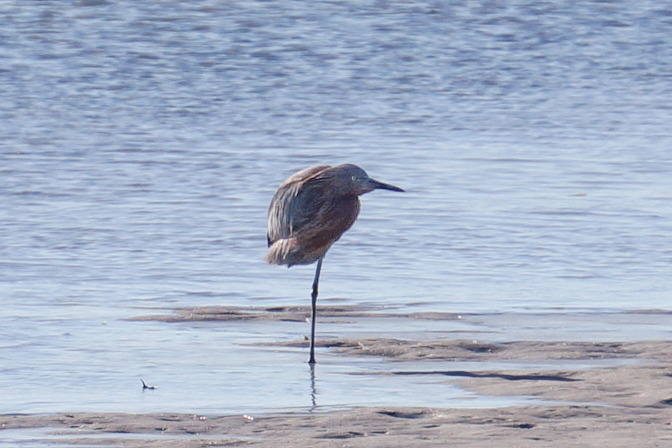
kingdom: Animalia
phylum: Chordata
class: Aves
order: Pelecaniformes
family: Ardeidae
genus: Egretta
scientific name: Egretta rufescens
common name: Reddish egret
